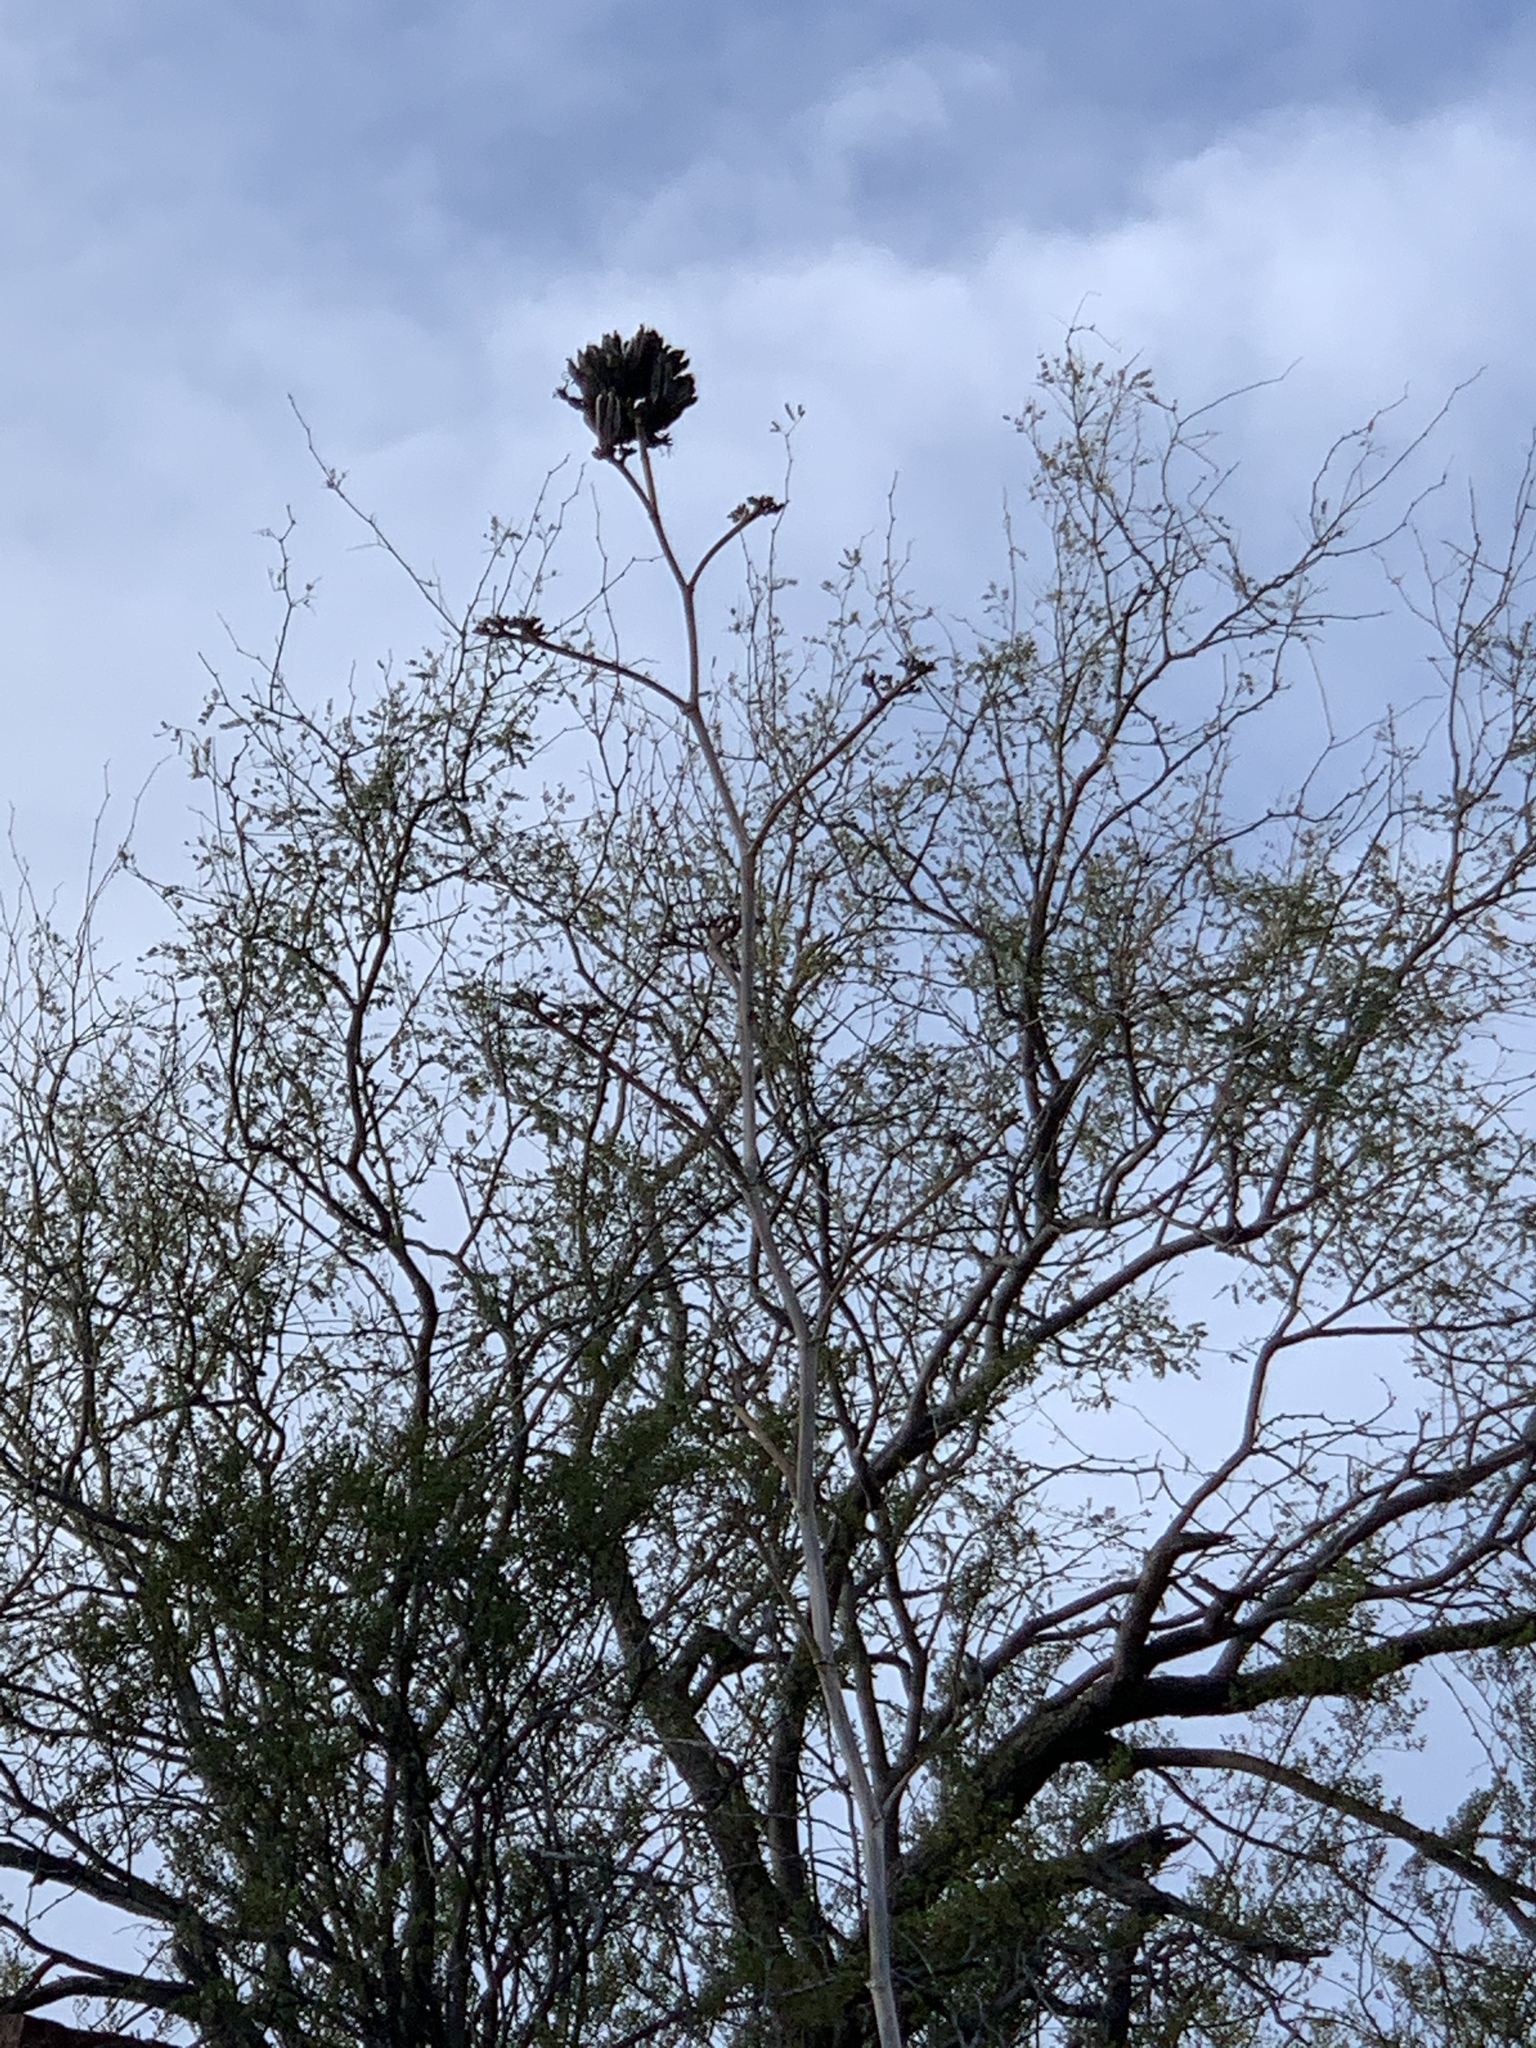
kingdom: Plantae
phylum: Tracheophyta
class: Liliopsida
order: Asparagales
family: Asparagaceae
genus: Agave
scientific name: Agave palmeri
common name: Palmer agave
